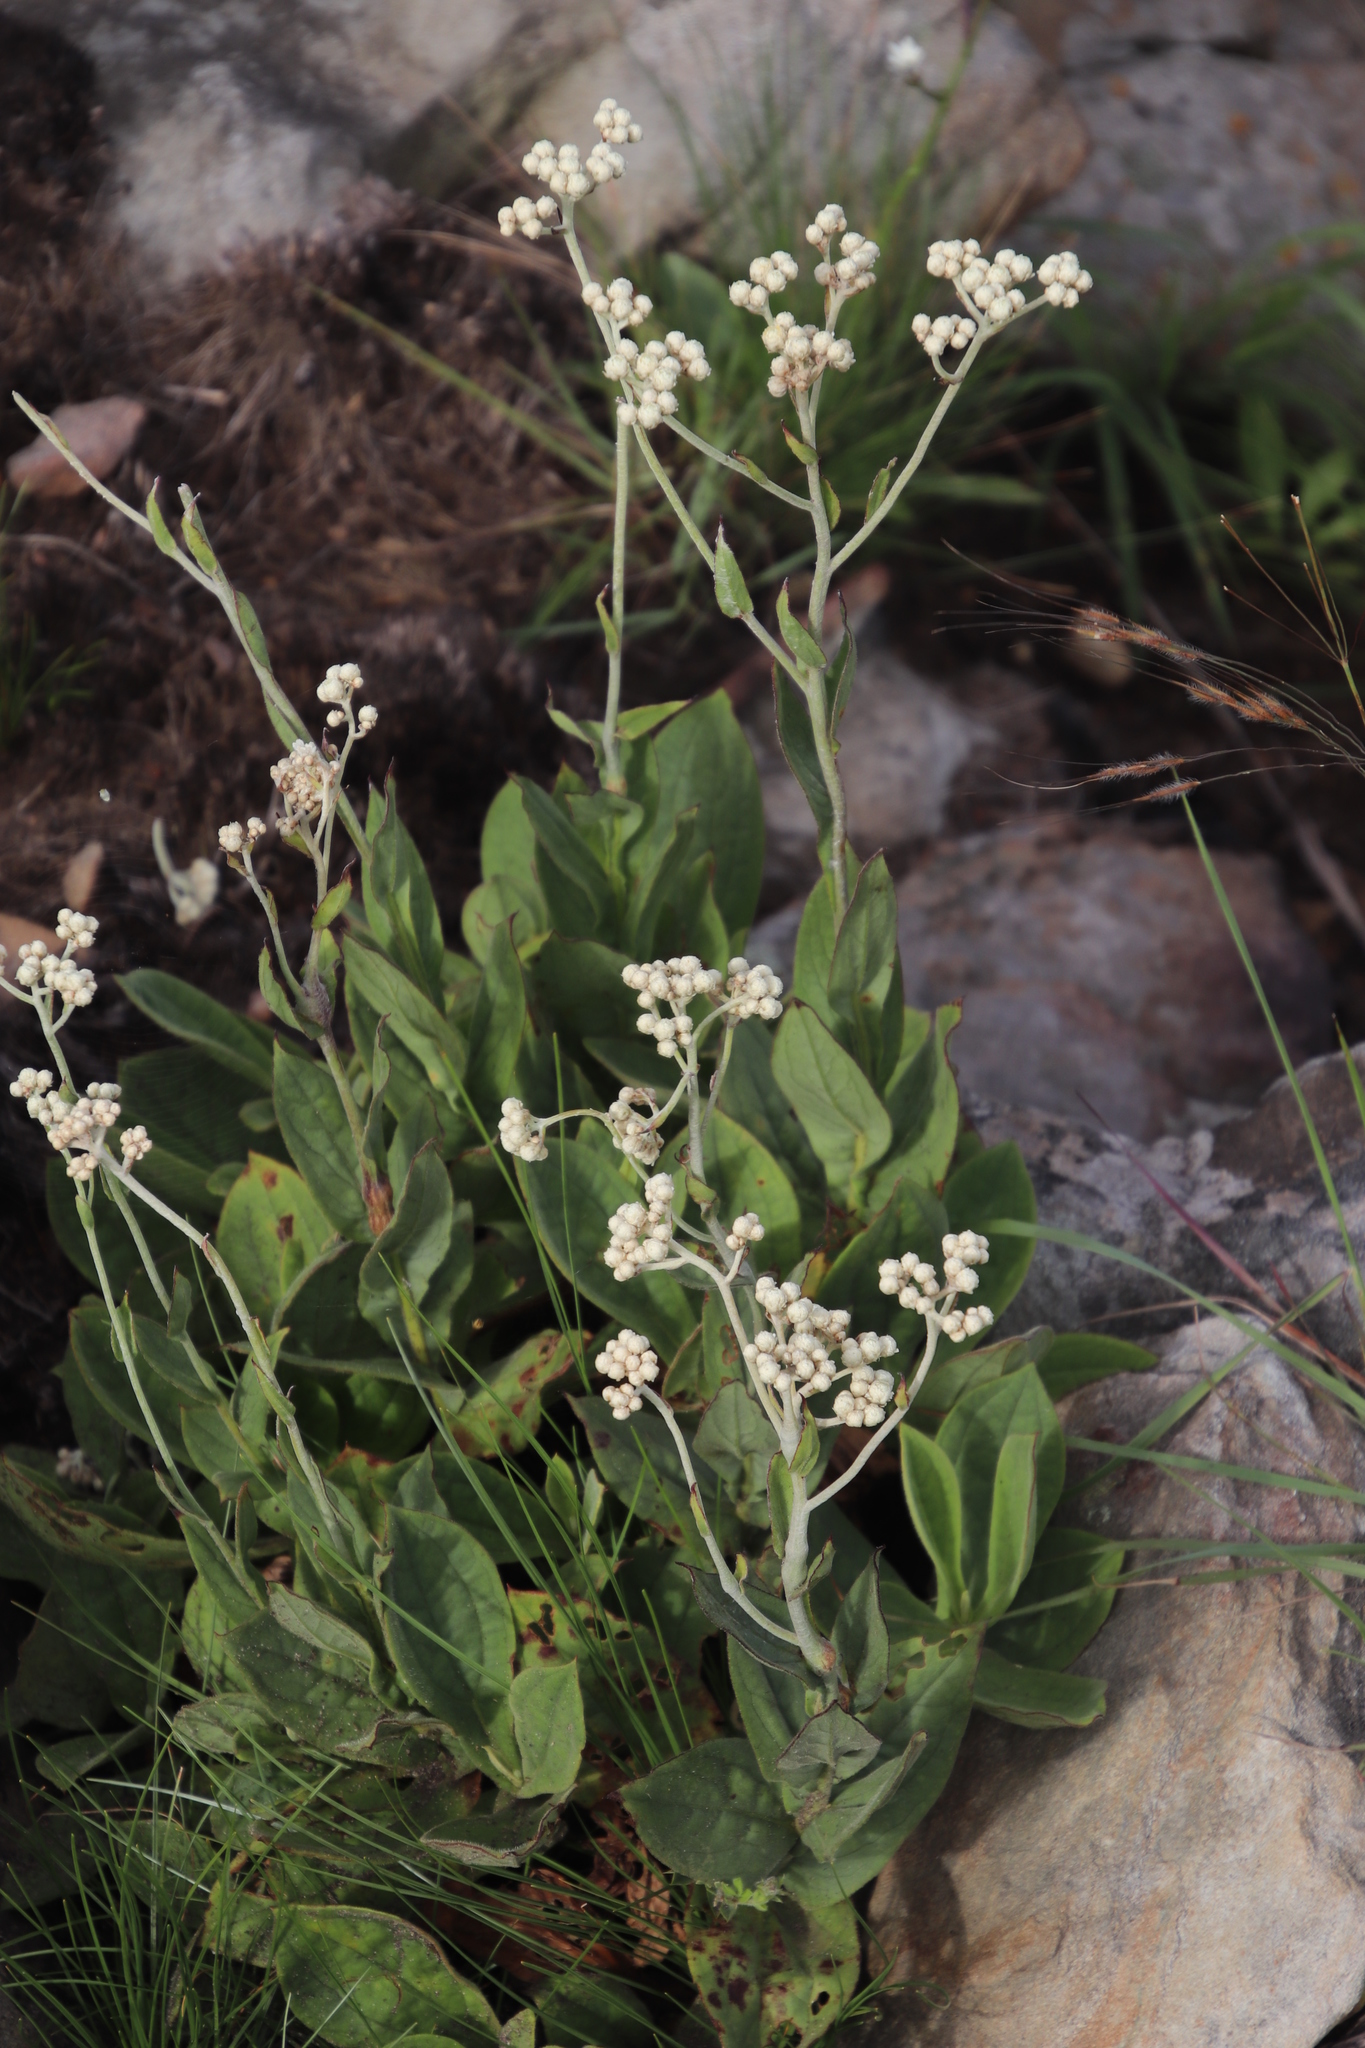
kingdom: Plantae
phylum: Tracheophyta
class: Magnoliopsida
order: Asterales
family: Asteraceae
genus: Helichrysum
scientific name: Helichrysum platypterum
